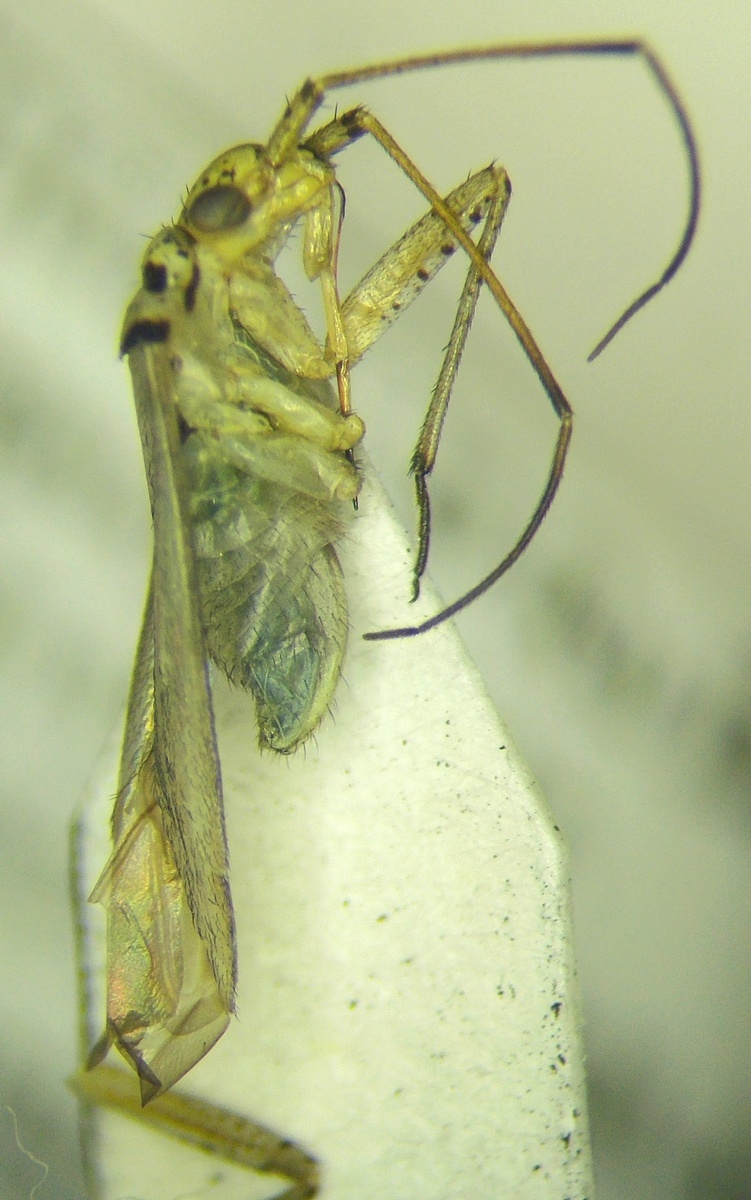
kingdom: Animalia
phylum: Arthropoda
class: Insecta
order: Hemiptera
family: Miridae
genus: Oncotylus
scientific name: Oncotylus viridiflavus
